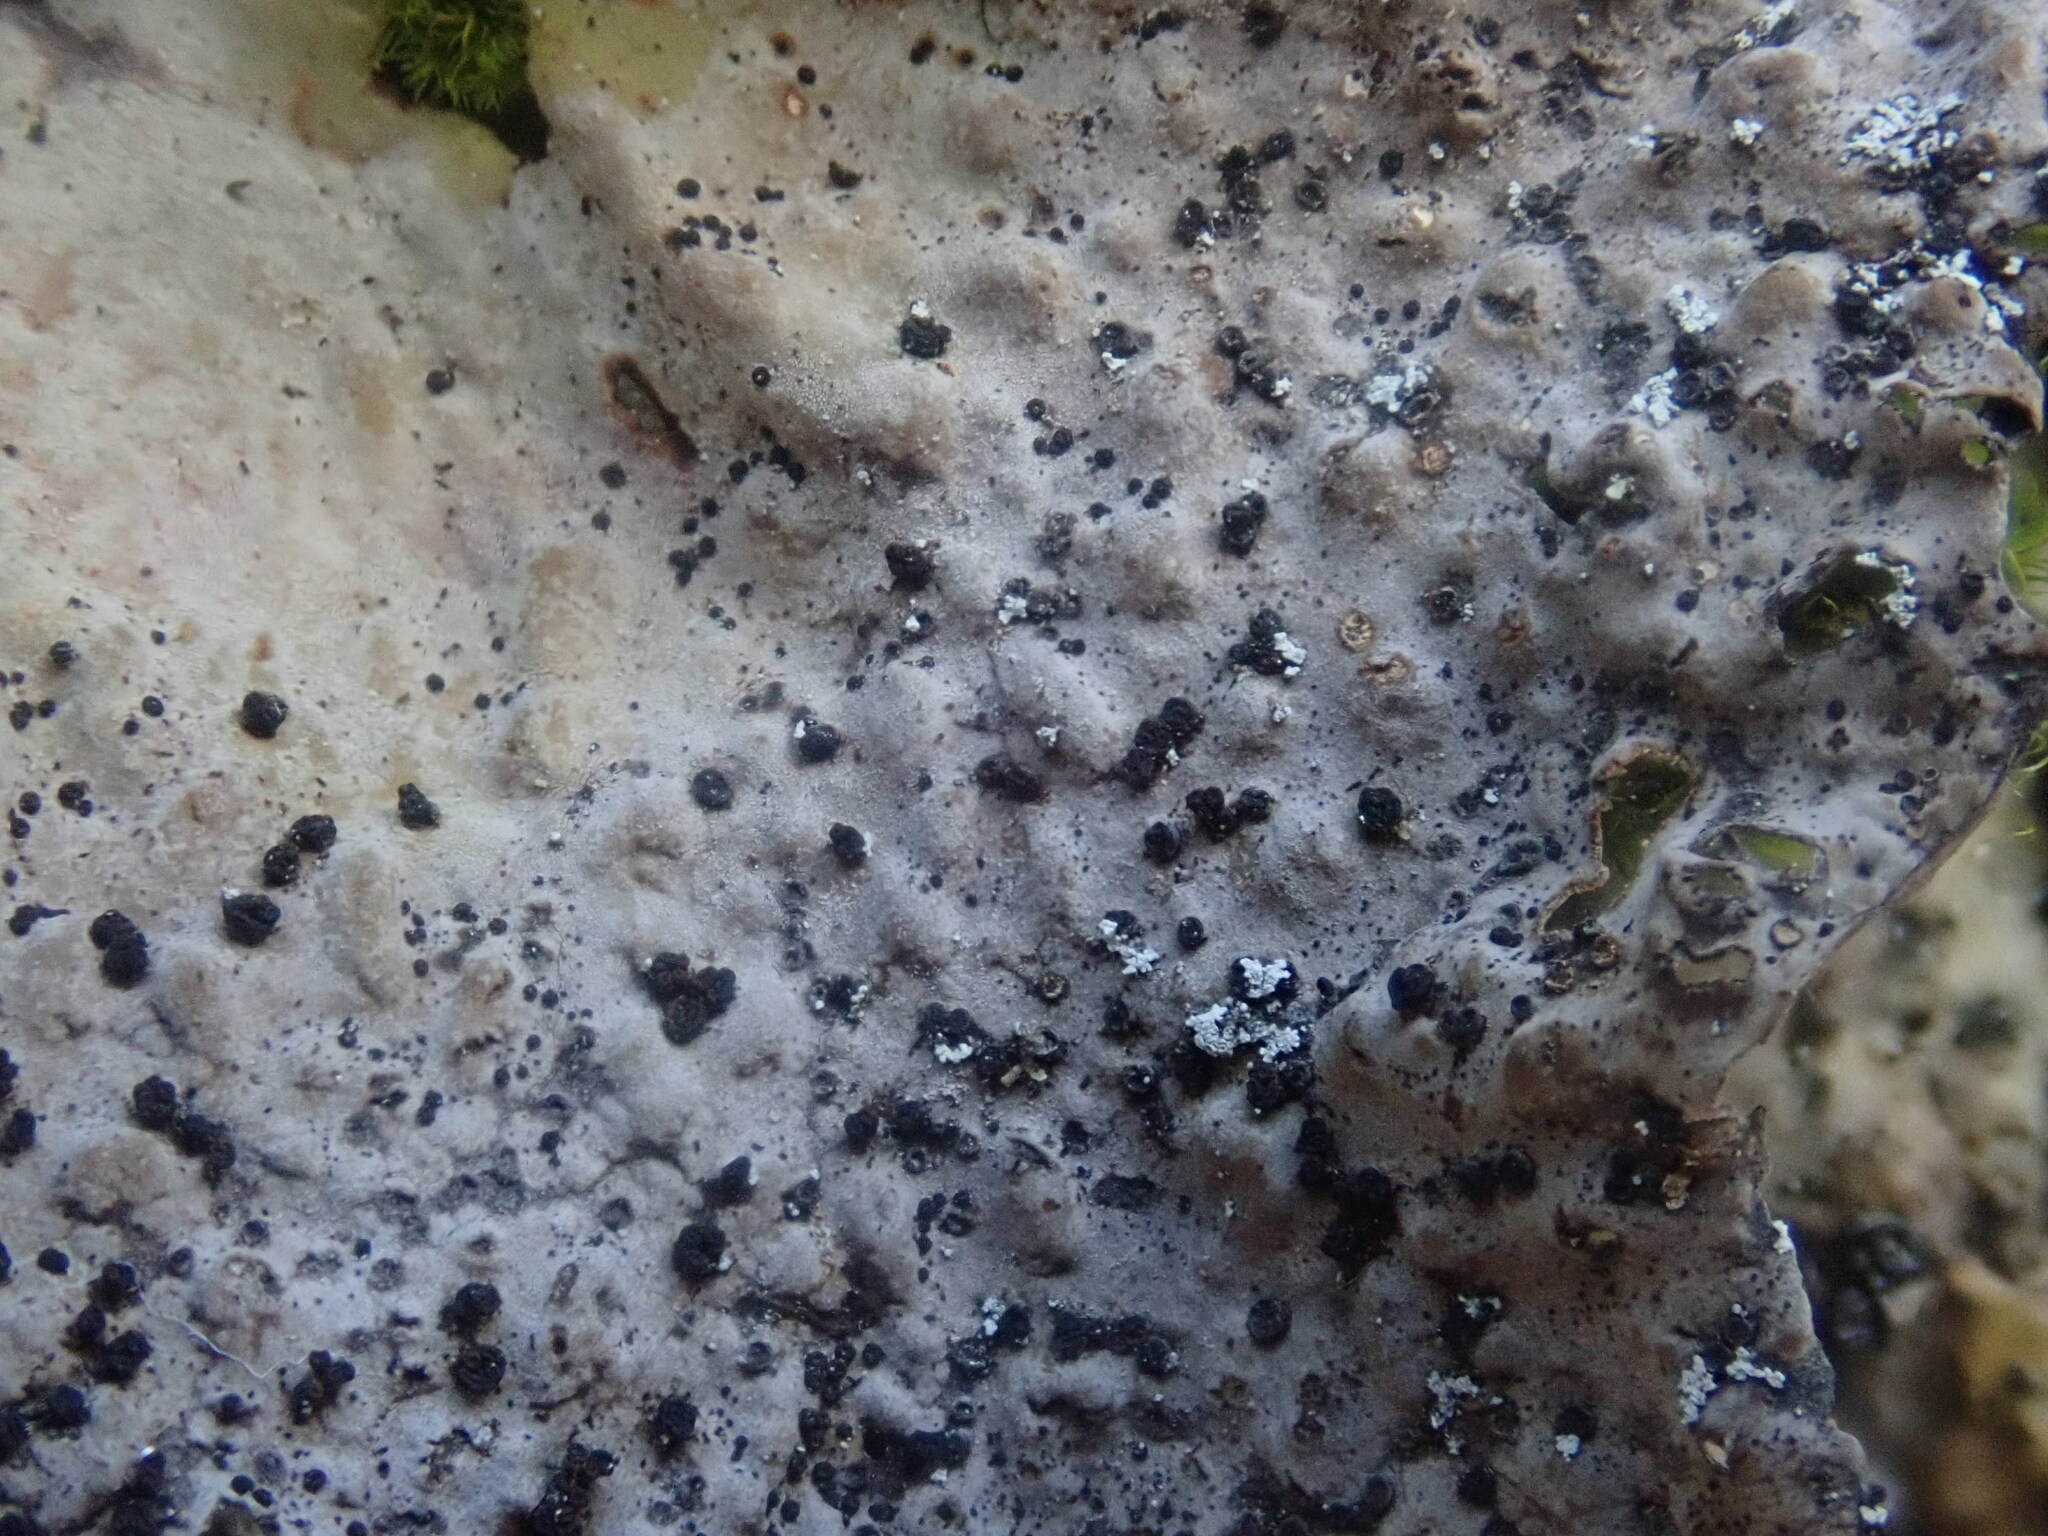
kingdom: Fungi
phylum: Ascomycota
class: Lecanoromycetes
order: Umbilicariales
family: Umbilicariaceae
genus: Lasallia
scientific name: Lasallia papulosa
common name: Common toadskin lichen
